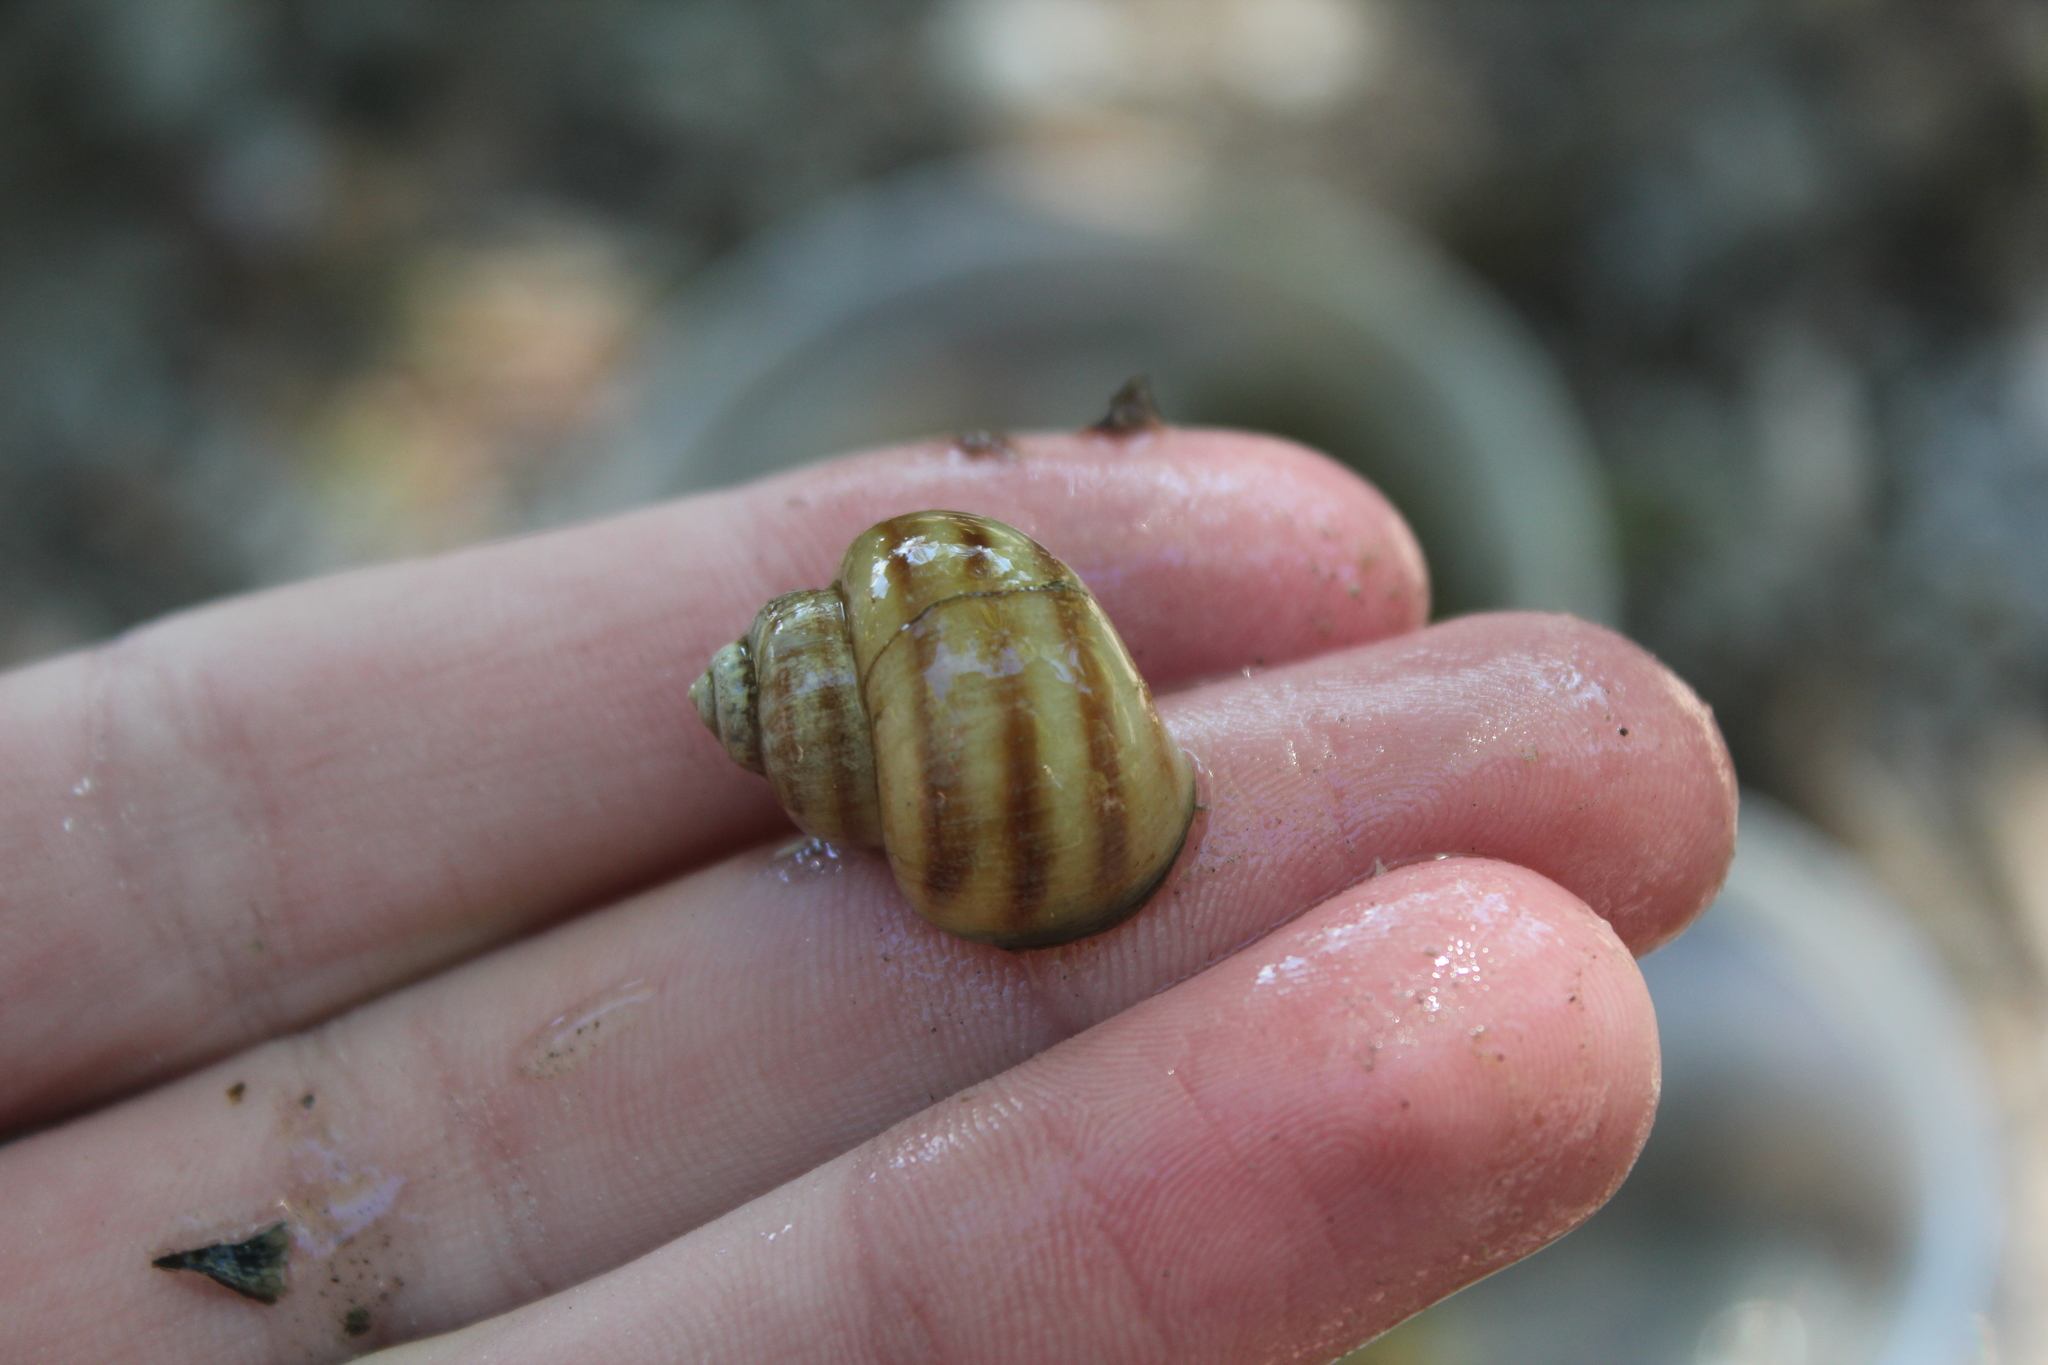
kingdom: Animalia
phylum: Mollusca
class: Gastropoda
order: Architaenioglossa
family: Viviparidae
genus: Callinina
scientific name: Callinina georgiana
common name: Banded mystery snail
